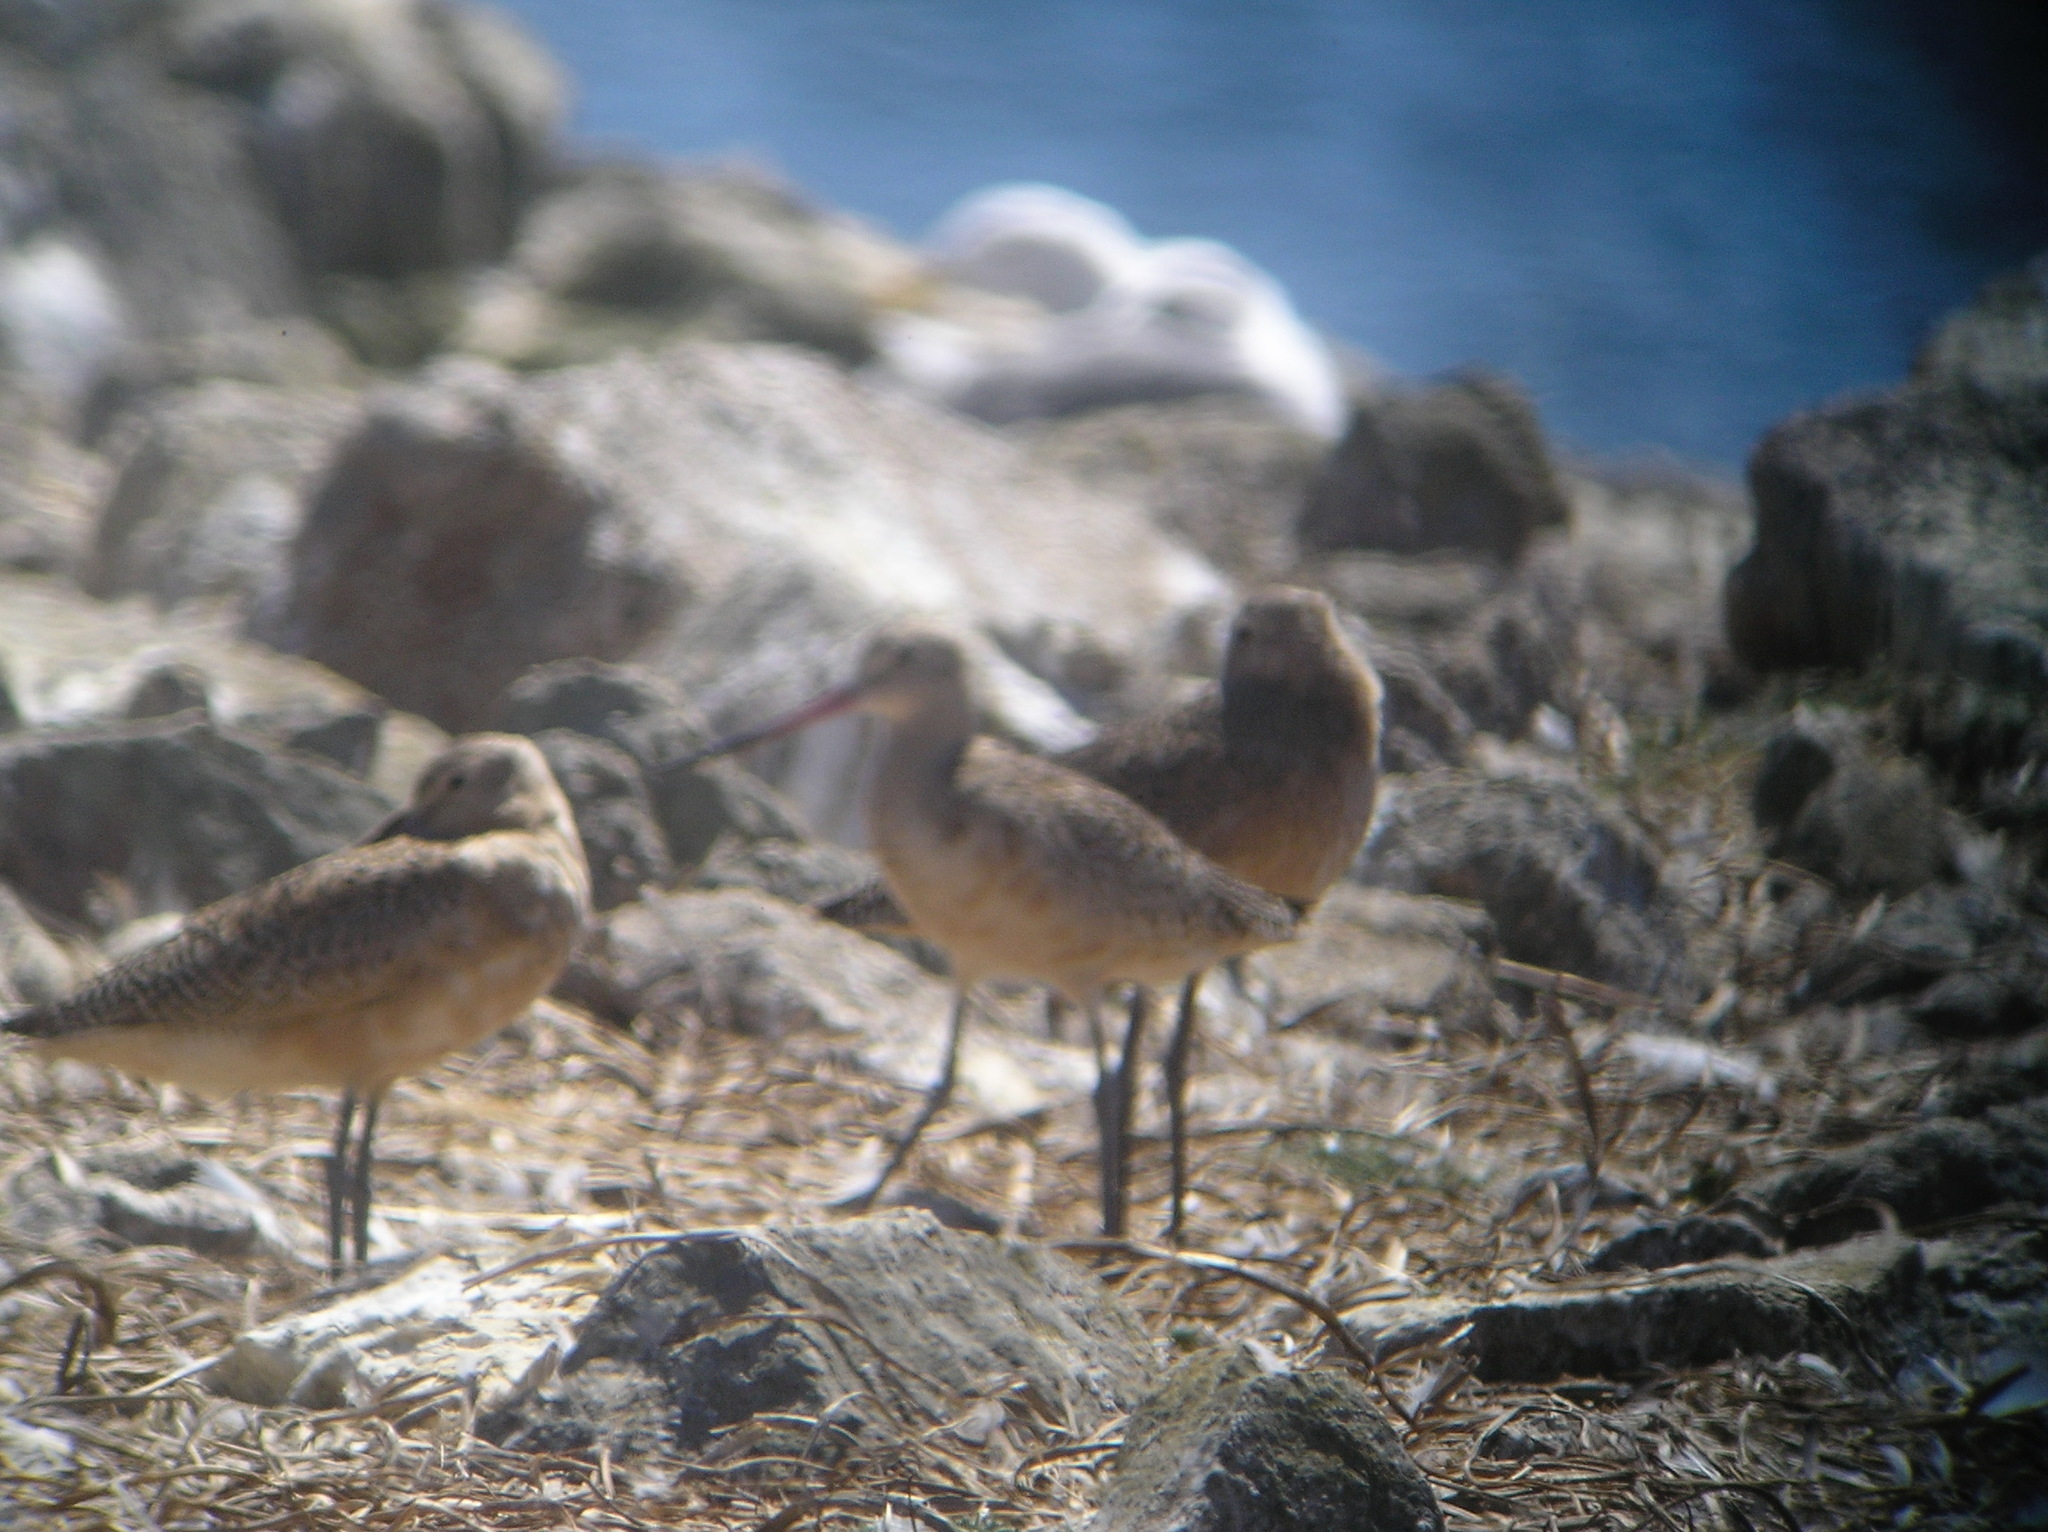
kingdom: Animalia
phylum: Chordata
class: Aves
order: Charadriiformes
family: Scolopacidae
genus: Limosa
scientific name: Limosa fedoa
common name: Marbled godwit
